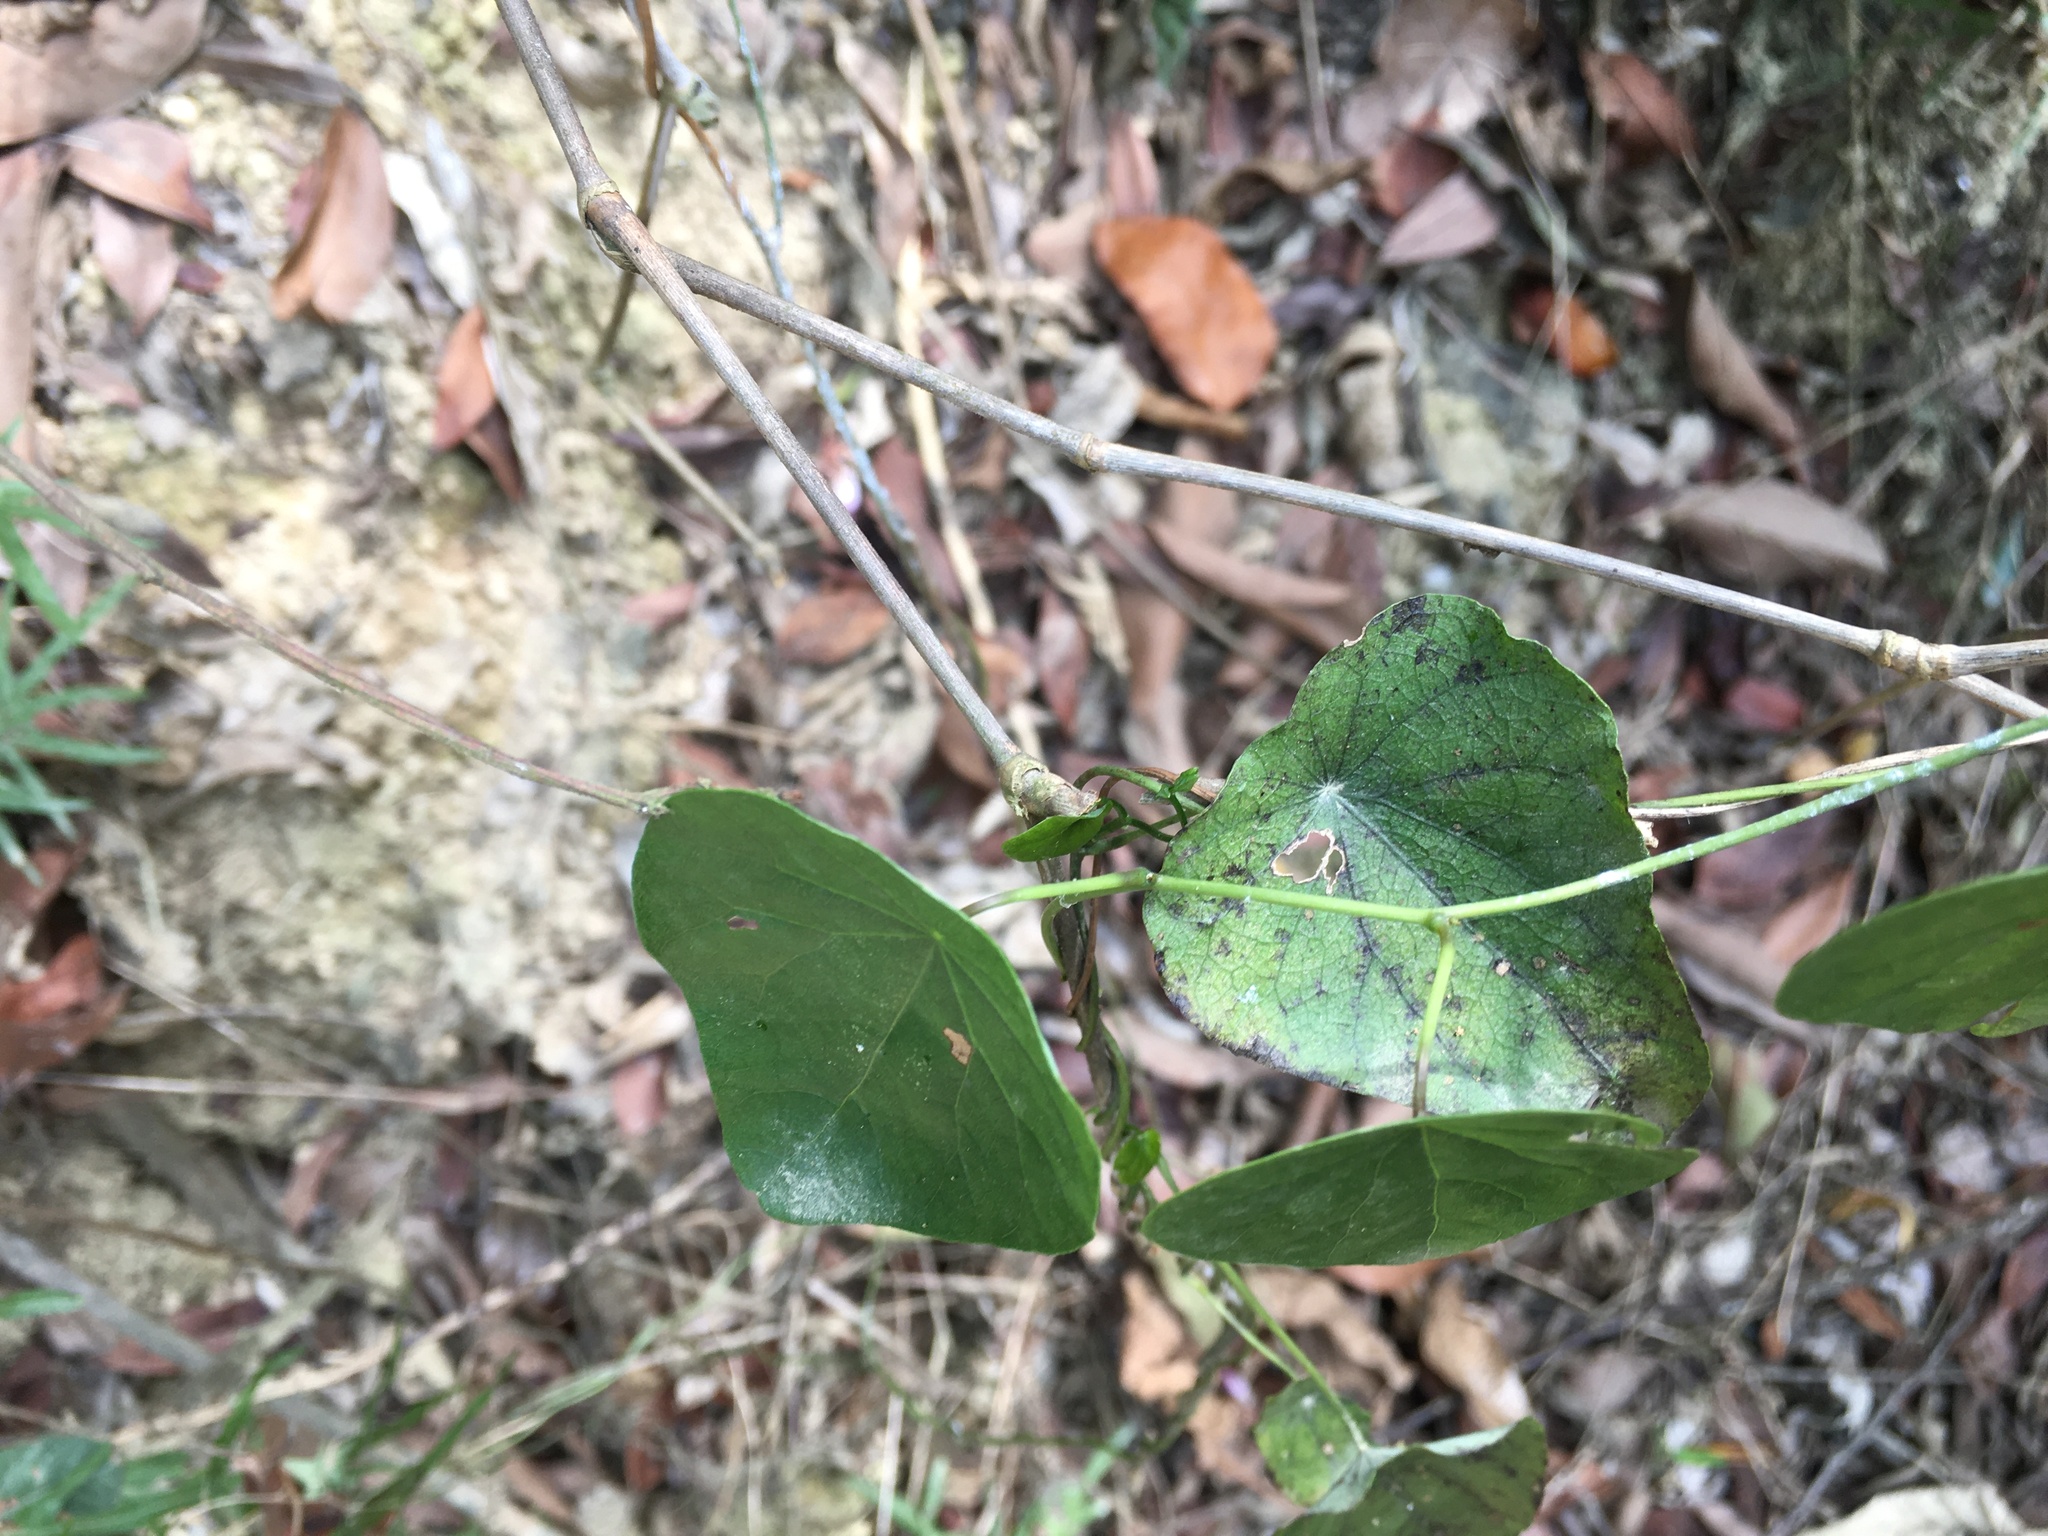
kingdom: Plantae
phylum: Tracheophyta
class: Magnoliopsida
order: Ranunculales
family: Menispermaceae
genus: Stephania
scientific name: Stephania japonica
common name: Snake vine
